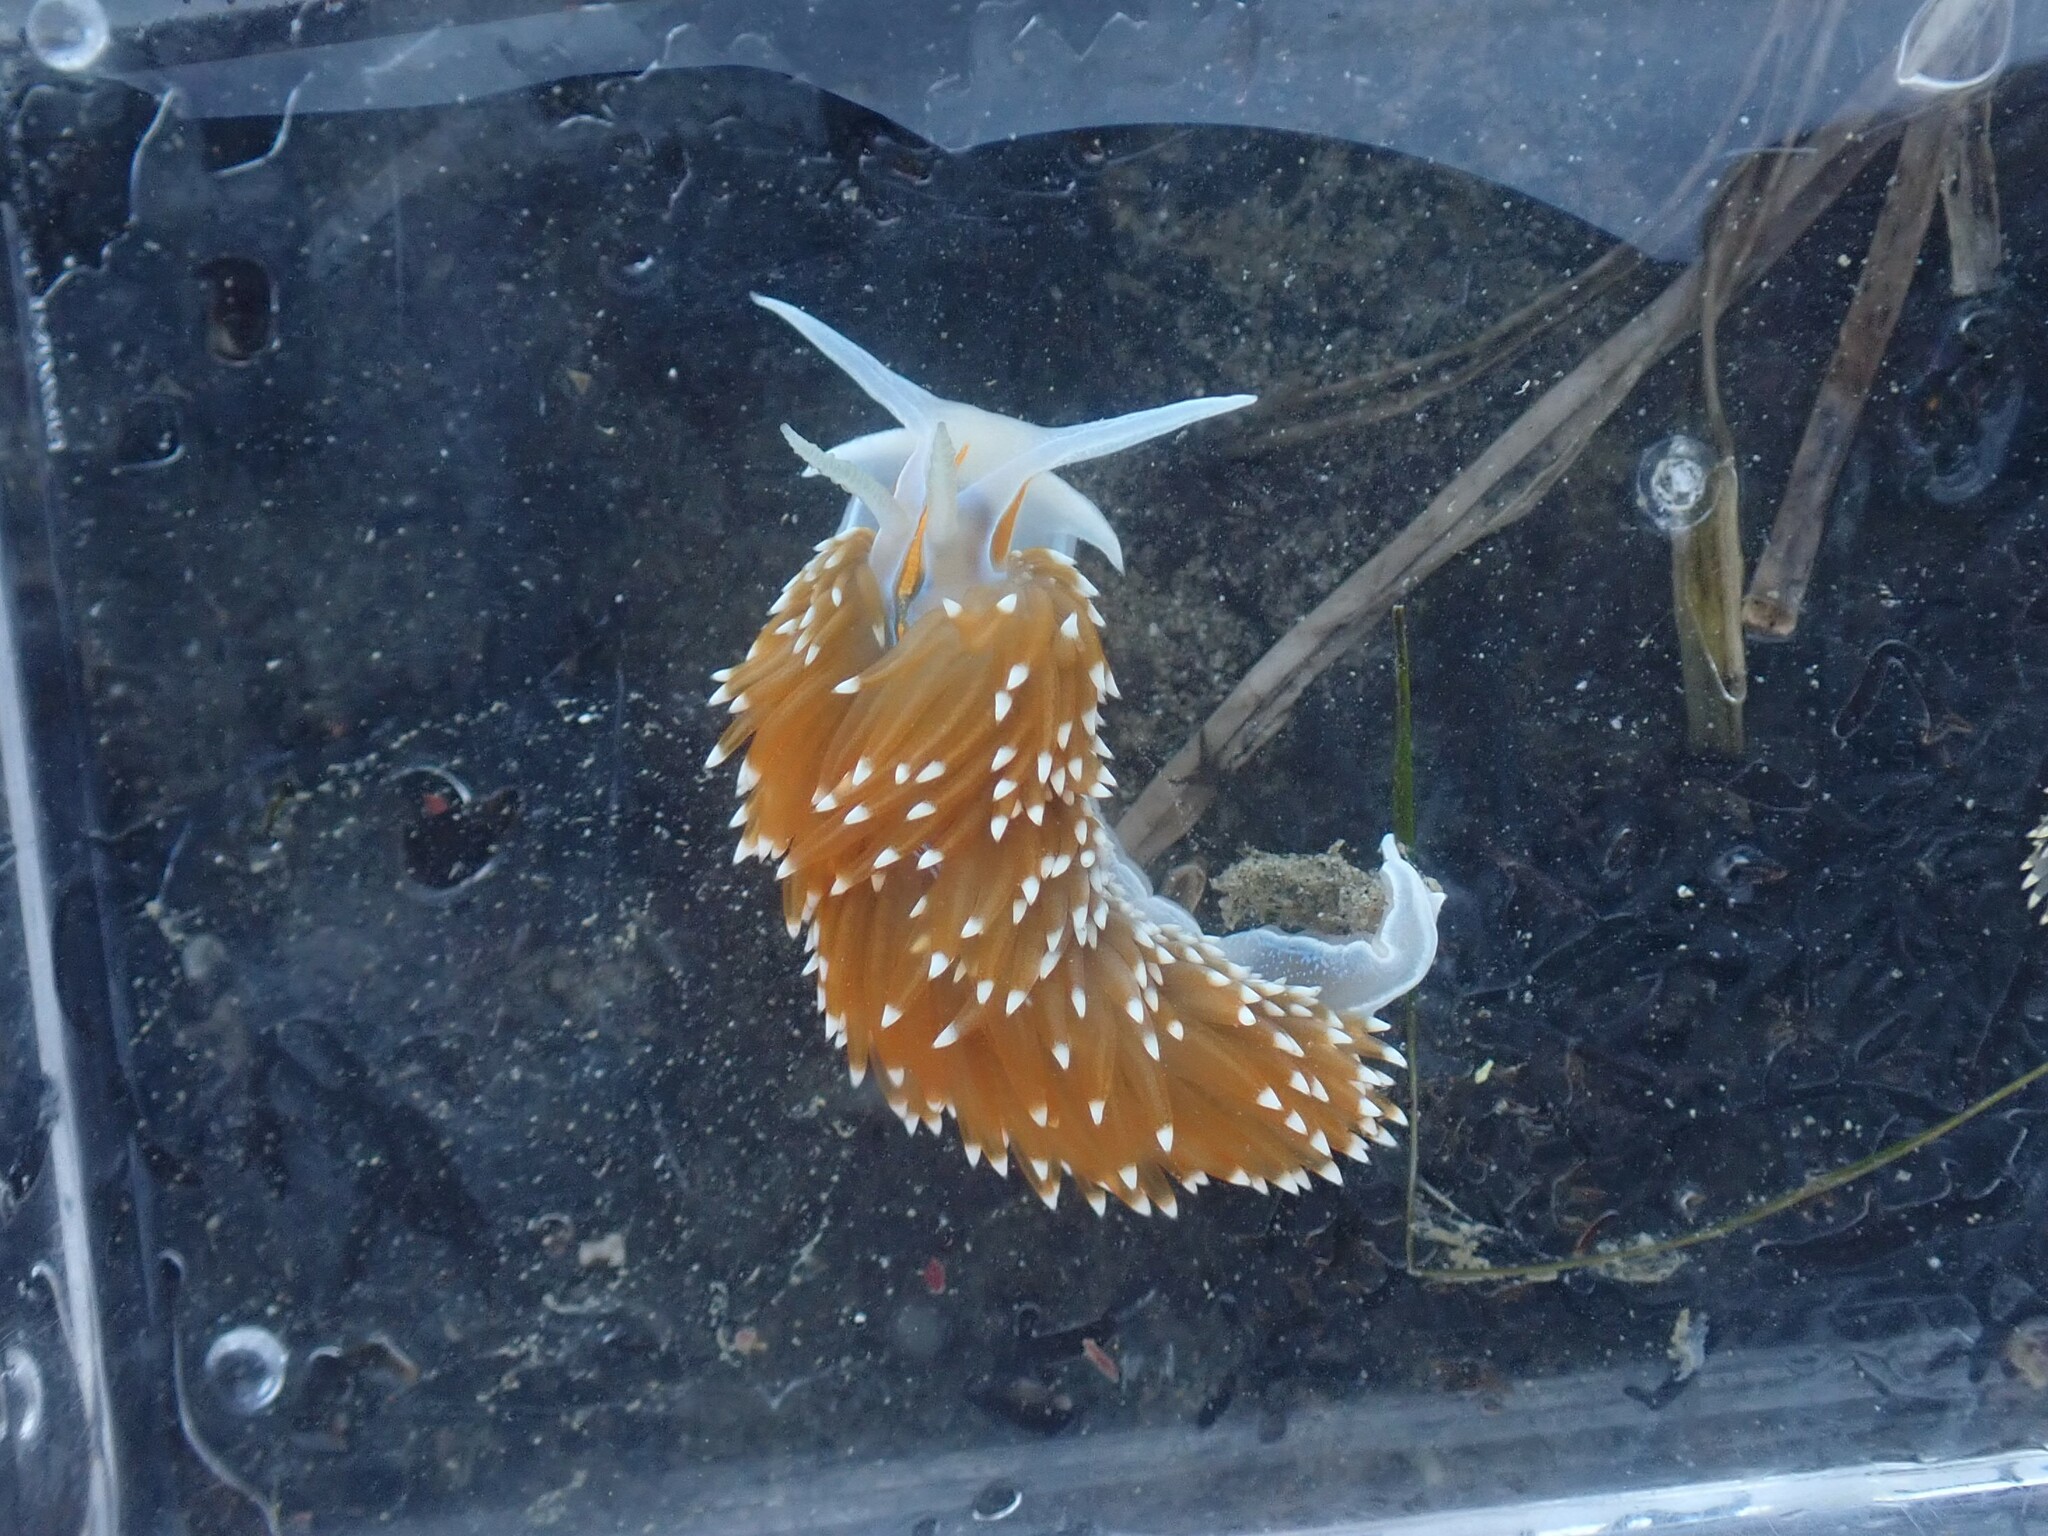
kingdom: Animalia
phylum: Mollusca
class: Gastropoda
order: Nudibranchia
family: Myrrhinidae
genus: Hermissenda
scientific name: Hermissenda opalescens
